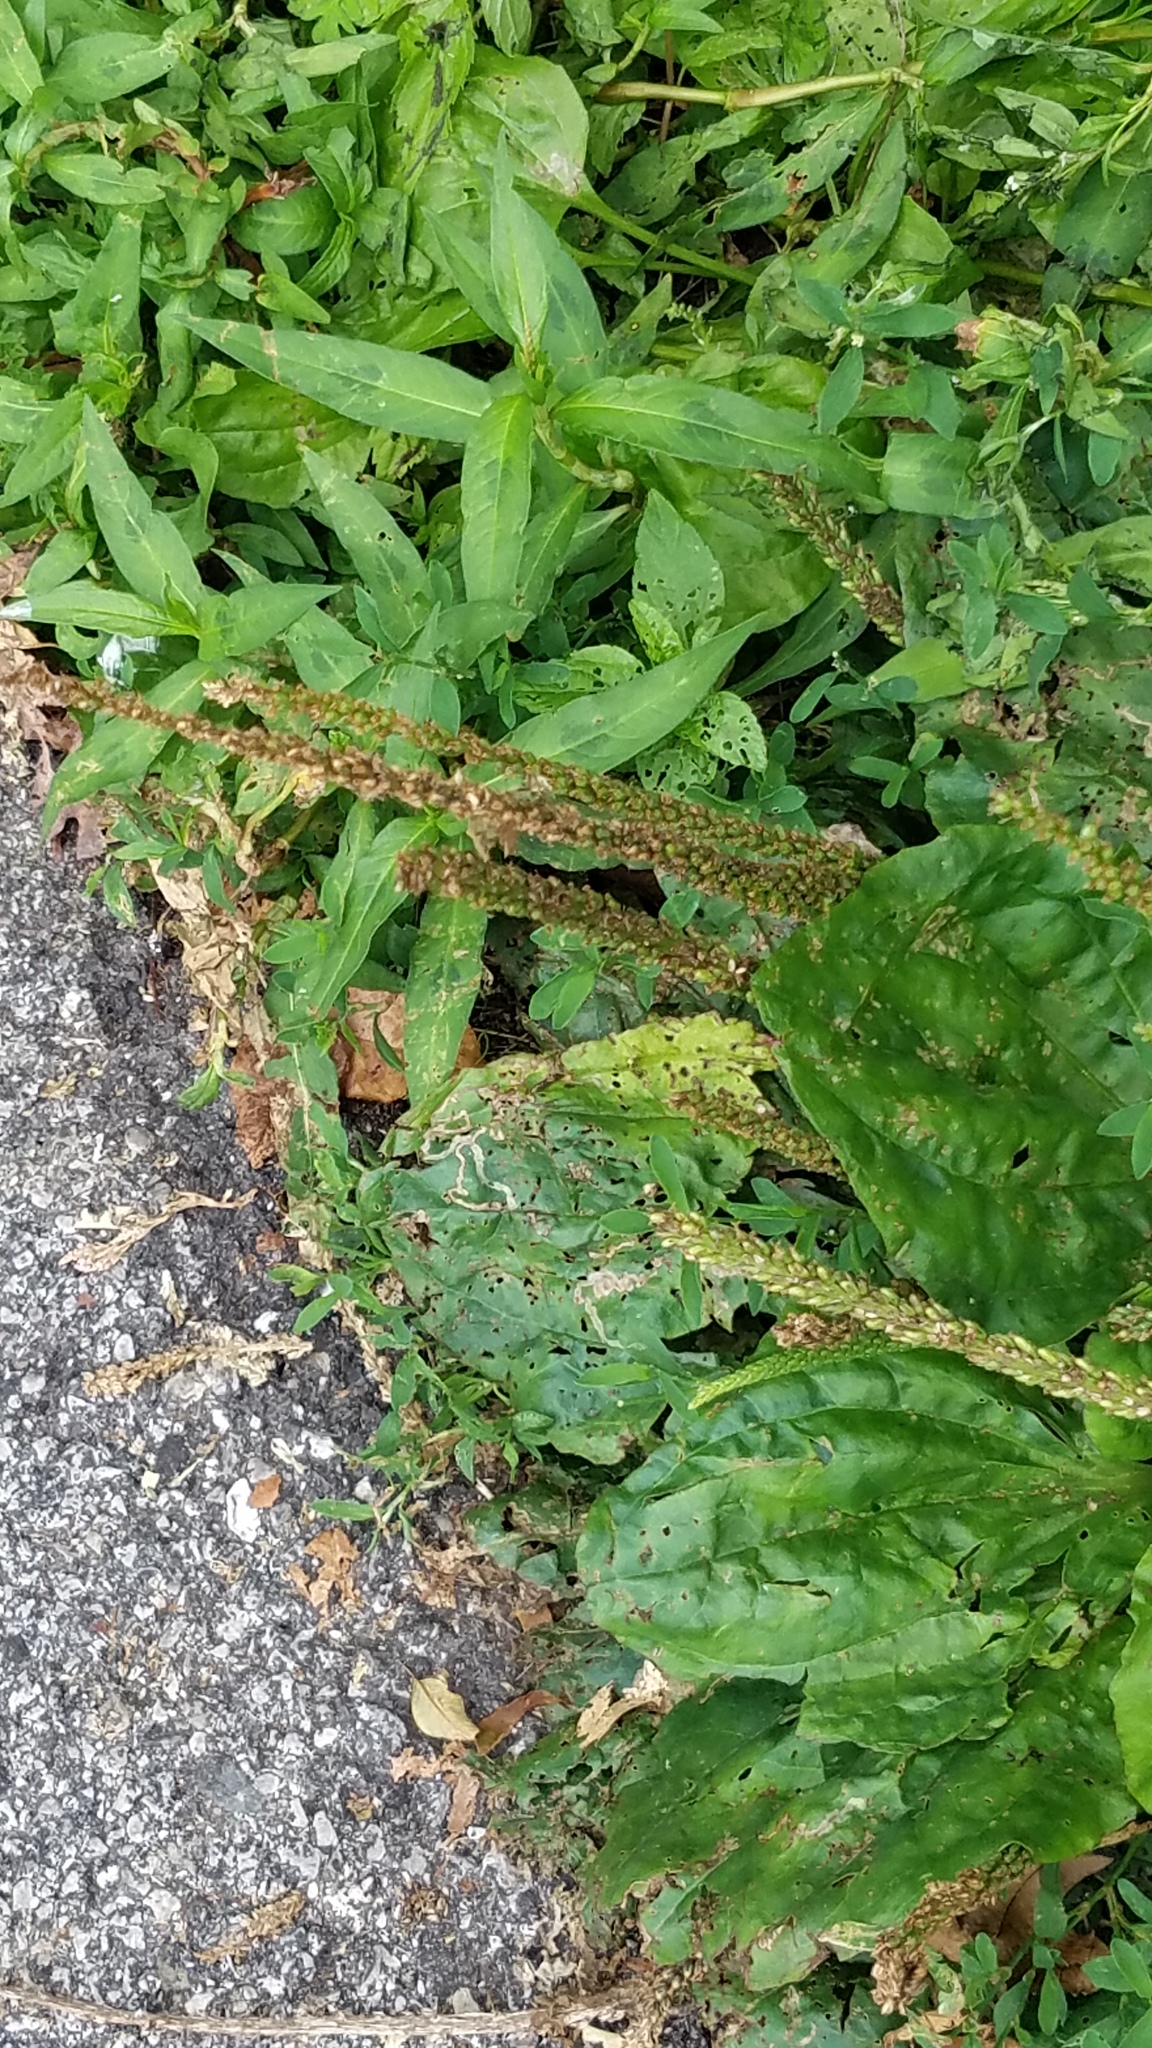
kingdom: Plantae
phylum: Tracheophyta
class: Magnoliopsida
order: Lamiales
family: Plantaginaceae
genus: Plantago
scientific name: Plantago rugelii
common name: American plantain
